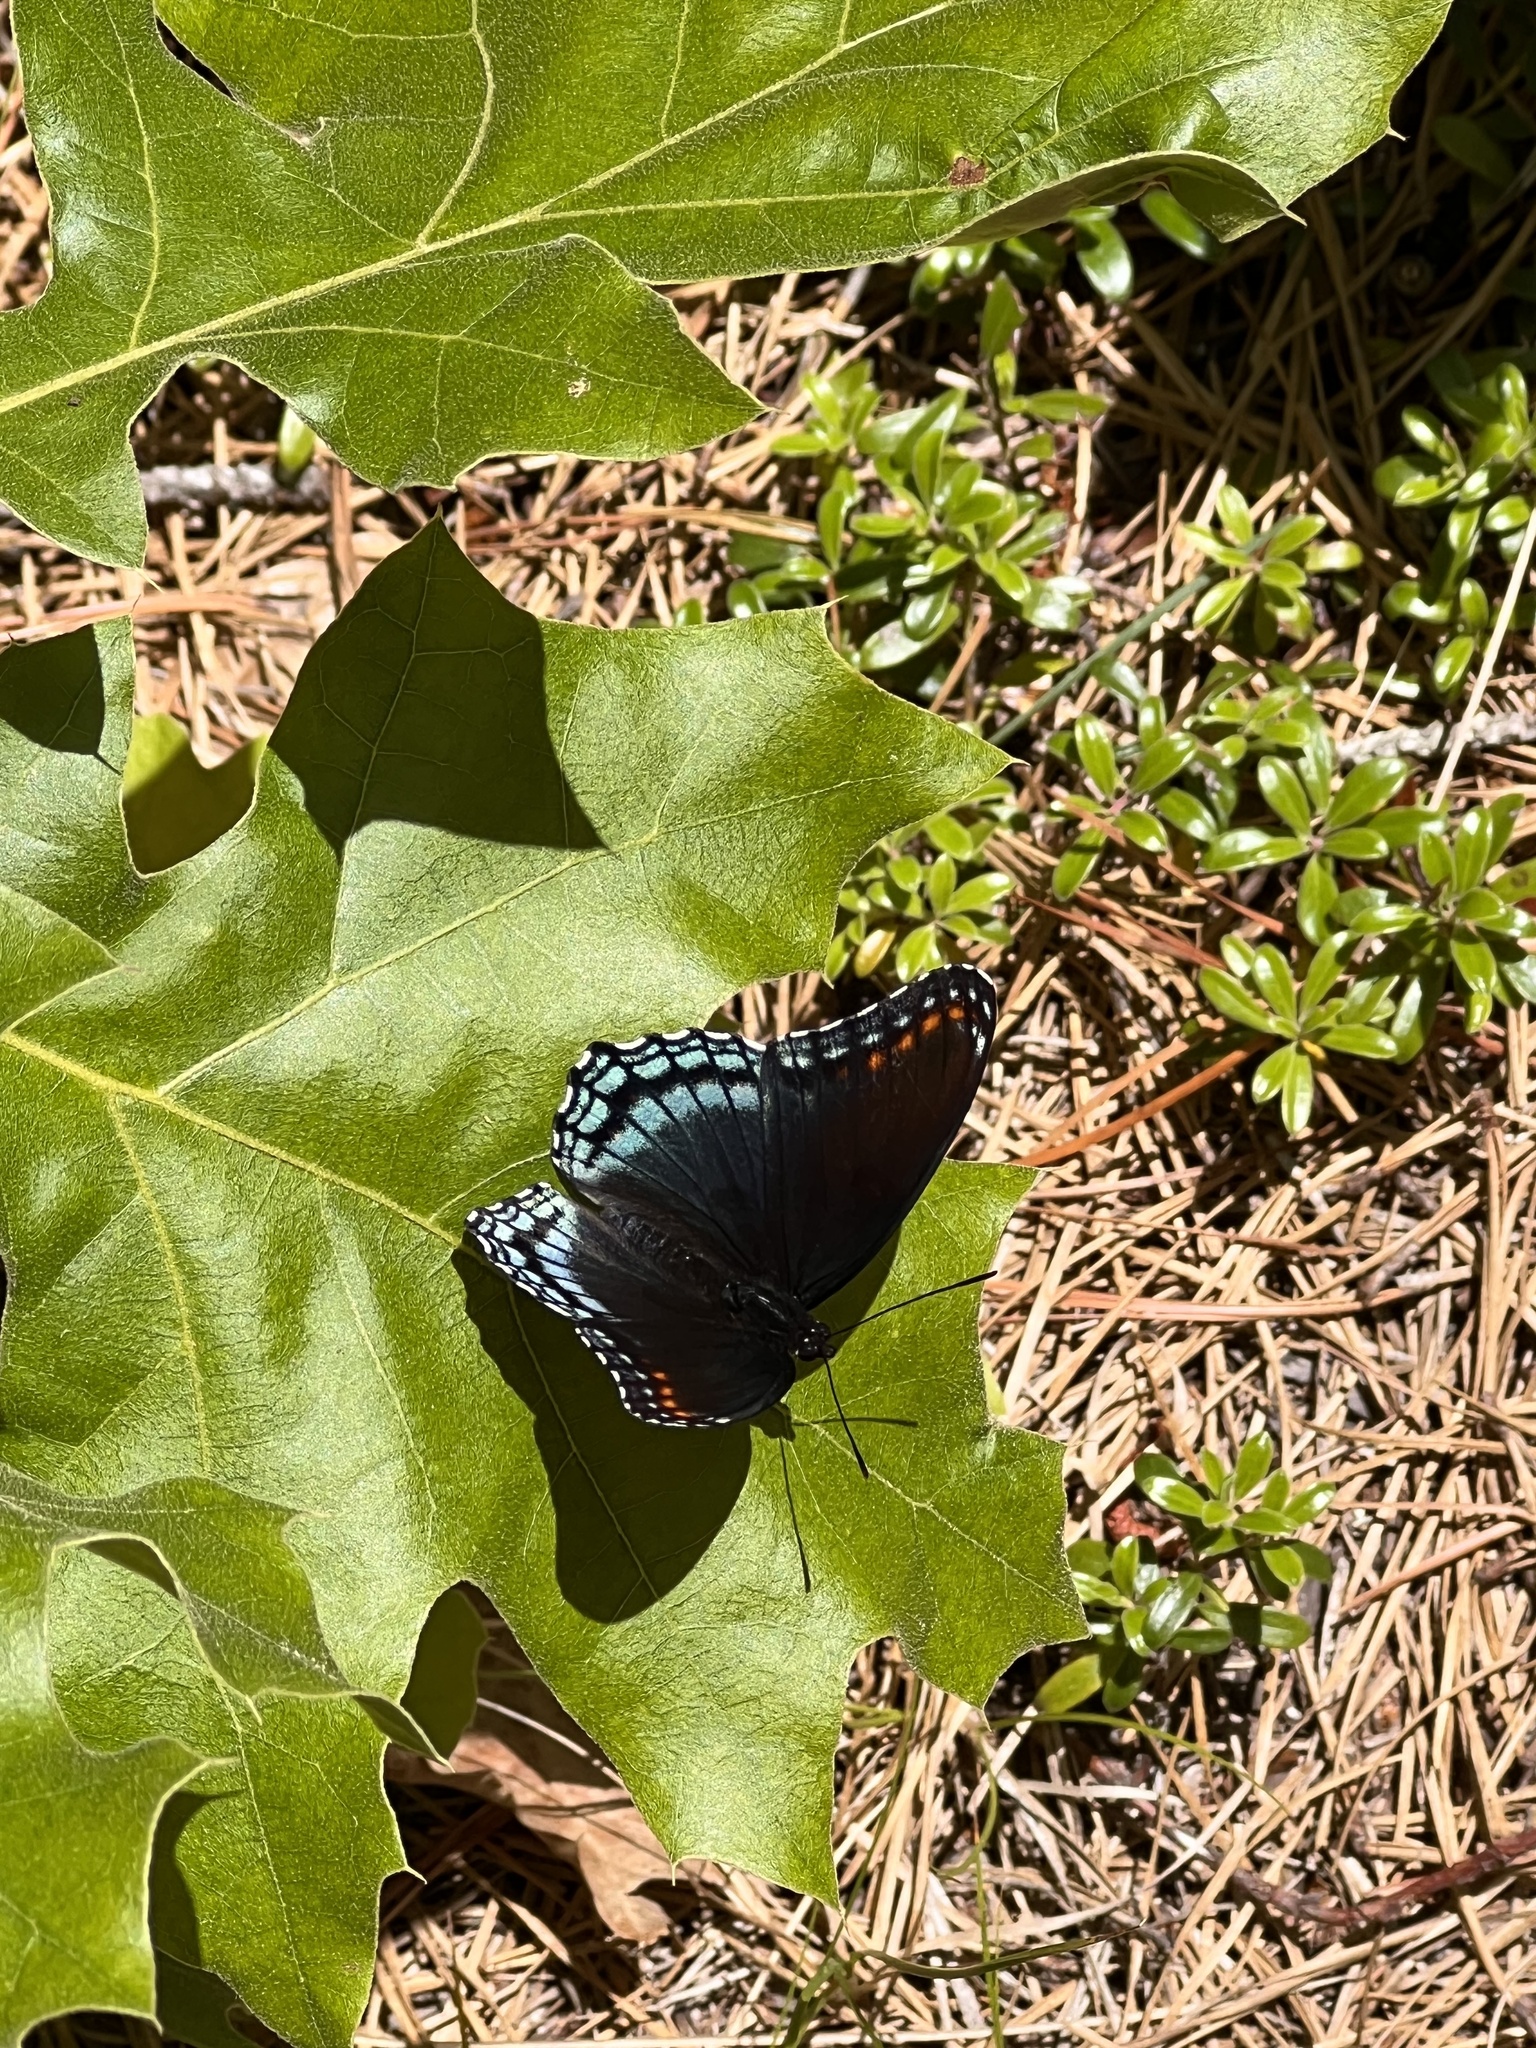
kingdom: Animalia
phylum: Arthropoda
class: Insecta
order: Lepidoptera
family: Nymphalidae
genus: Limenitis
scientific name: Limenitis arthemis
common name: Red-spotted admiral
